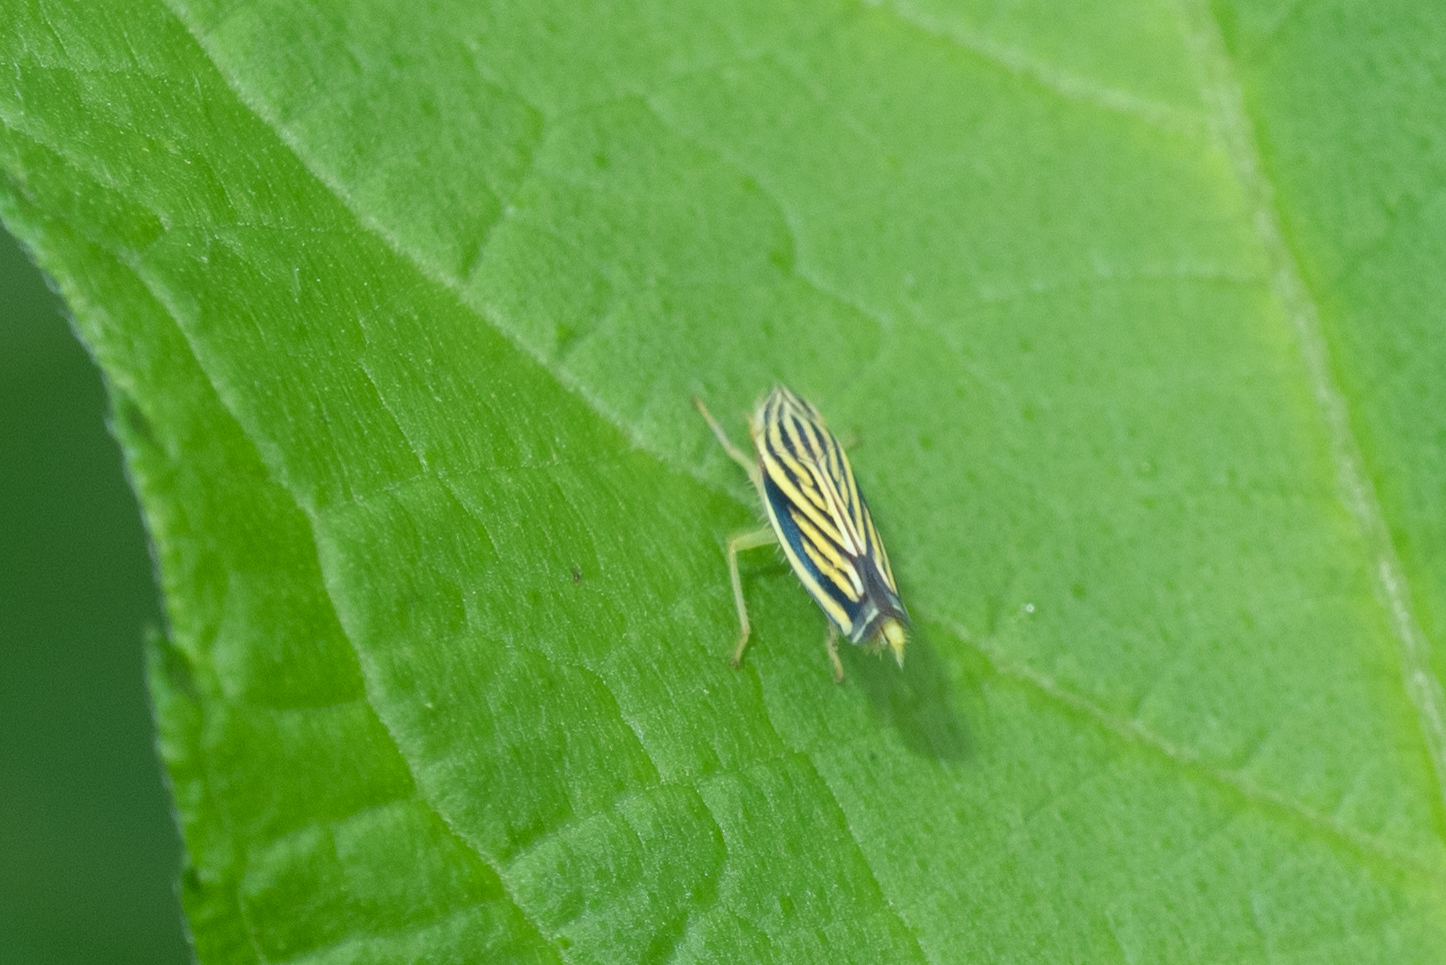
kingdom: Animalia
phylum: Arthropoda
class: Insecta
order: Hemiptera
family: Cicadellidae
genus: Sibovia
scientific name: Sibovia occatoria
